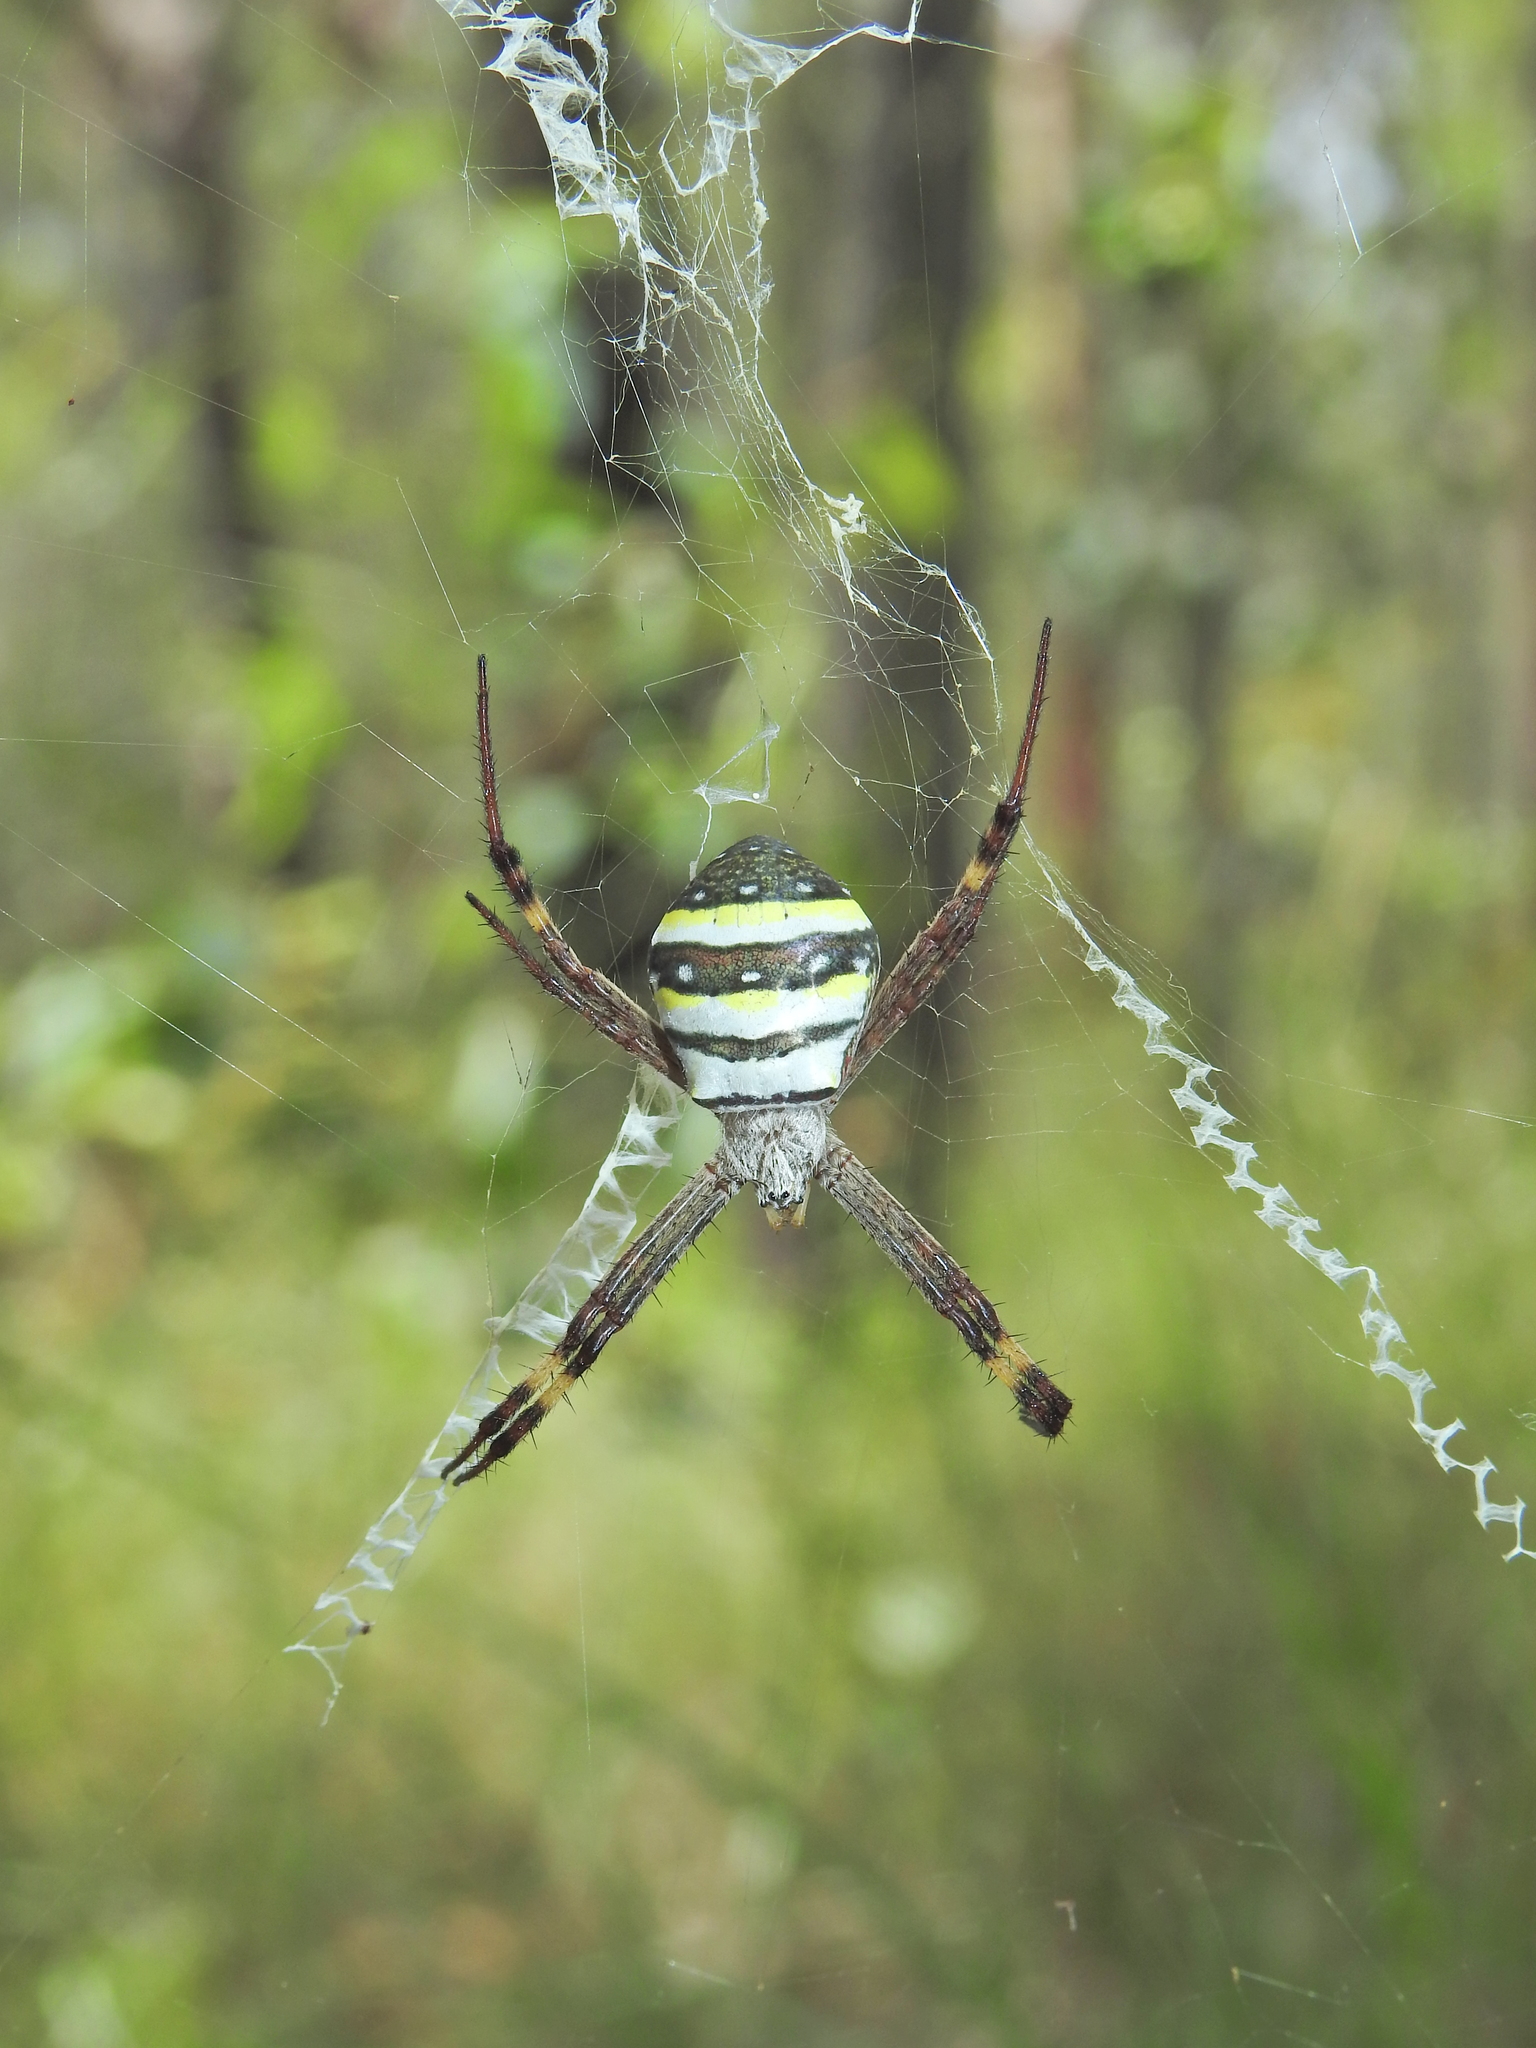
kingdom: Animalia
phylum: Arthropoda
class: Arachnida
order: Araneae
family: Araneidae
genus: Argiope
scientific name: Argiope keyserlingi
